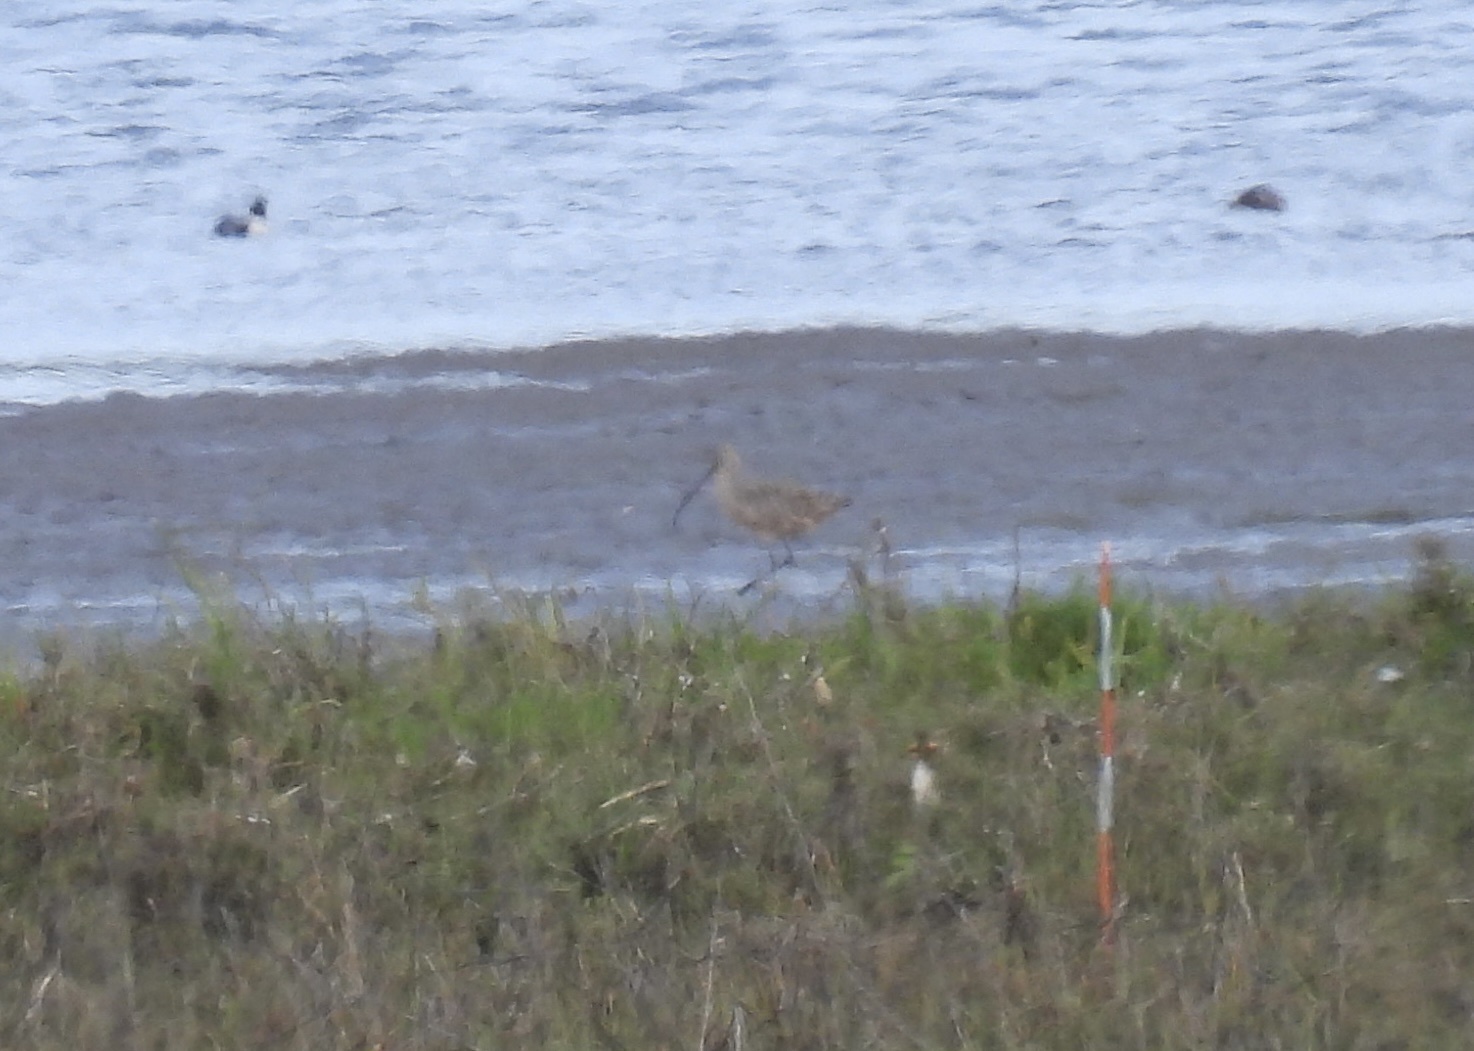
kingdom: Animalia
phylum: Chordata
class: Aves
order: Charadriiformes
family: Scolopacidae
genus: Numenius
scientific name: Numenius americanus
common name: Long-billed curlew
